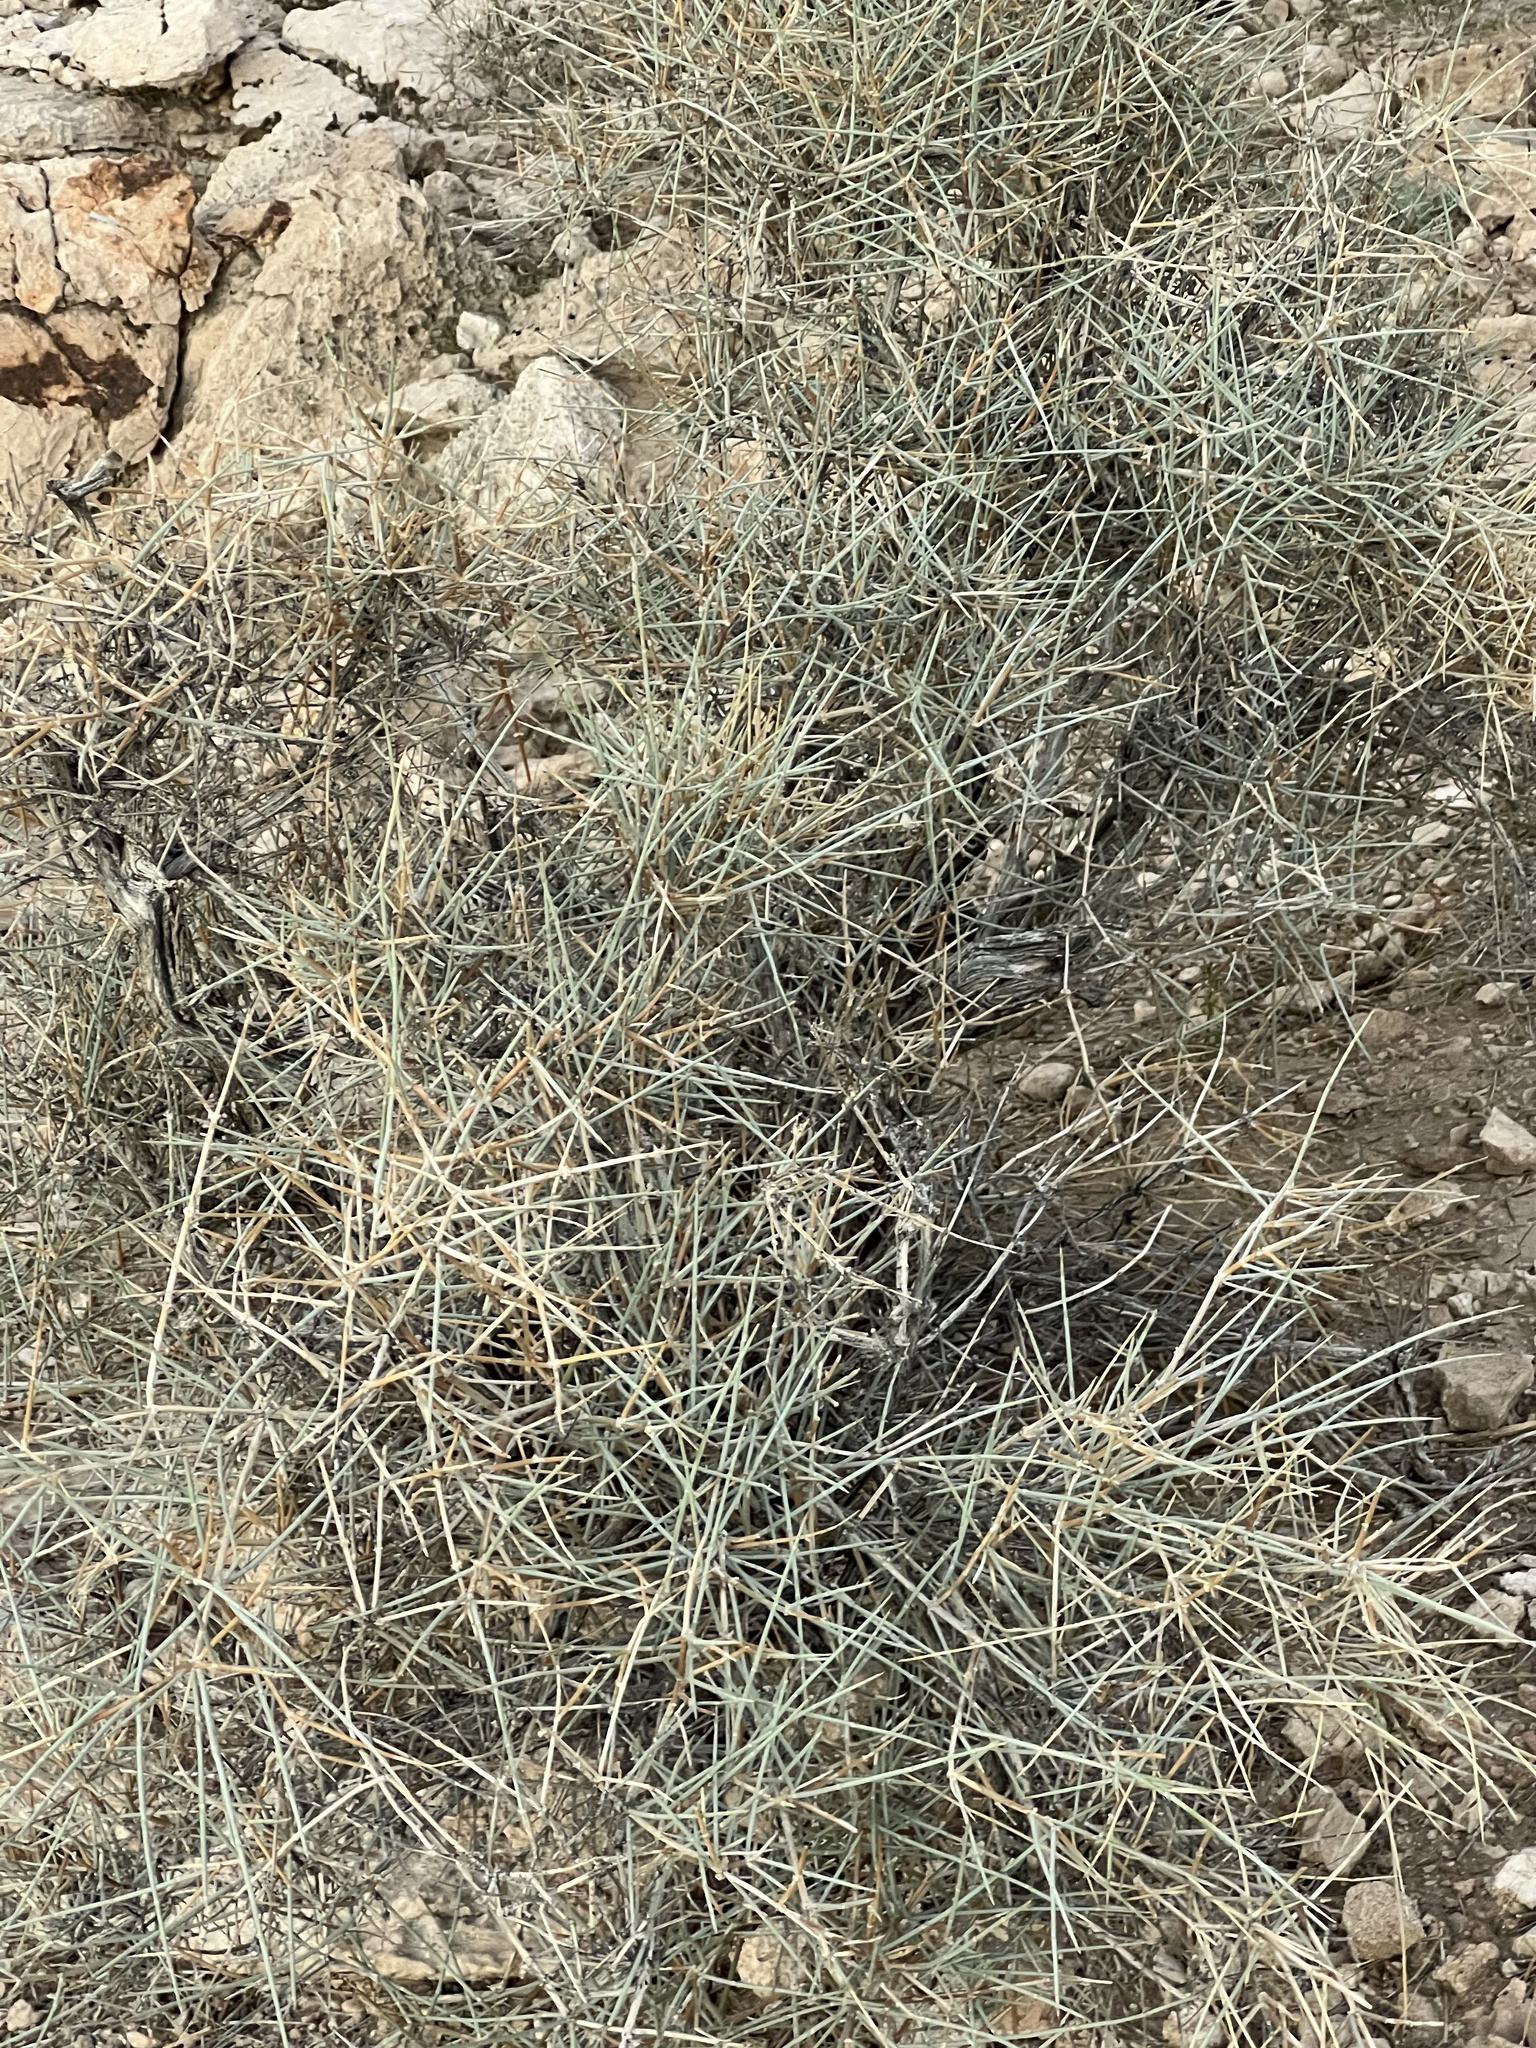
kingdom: Plantae
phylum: Tracheophyta
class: Gnetopsida
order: Ephedrales
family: Ephedraceae
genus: Ephedra
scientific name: Ephedra nevadensis
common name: Gray ephedra
